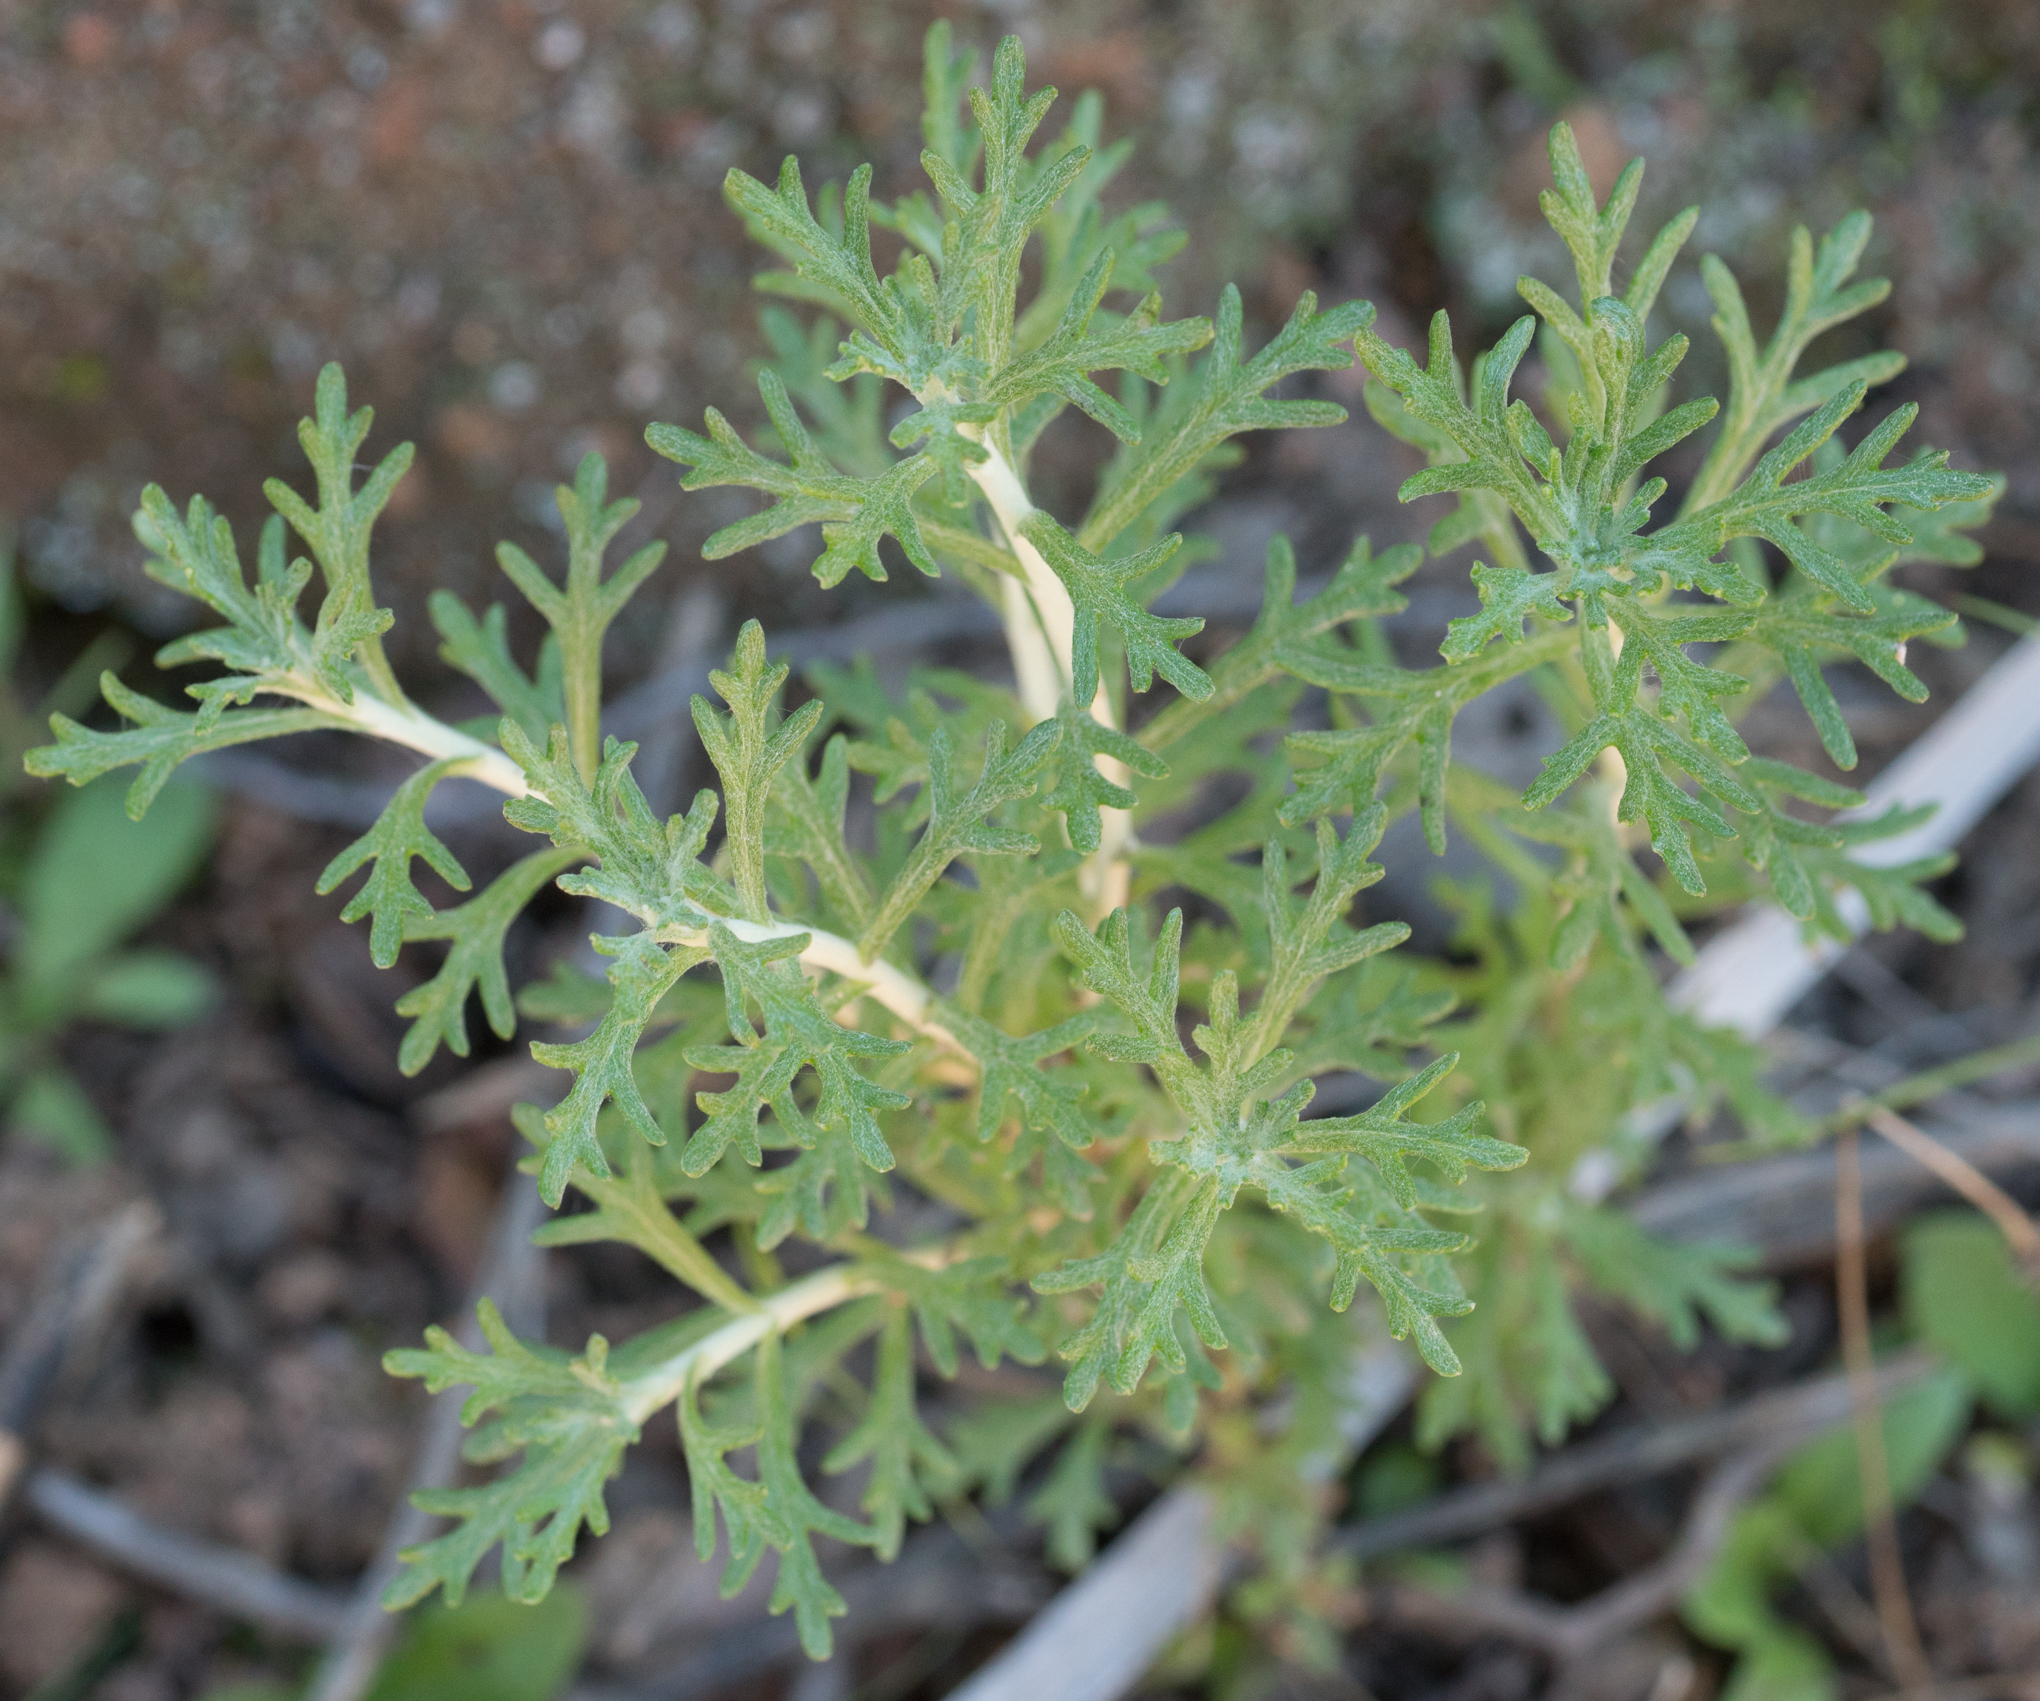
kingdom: Plantae
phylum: Tracheophyta
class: Magnoliopsida
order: Asterales
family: Asteraceae
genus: Eriophyllum
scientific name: Eriophyllum confertiflorum
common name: Golden-yarrow
